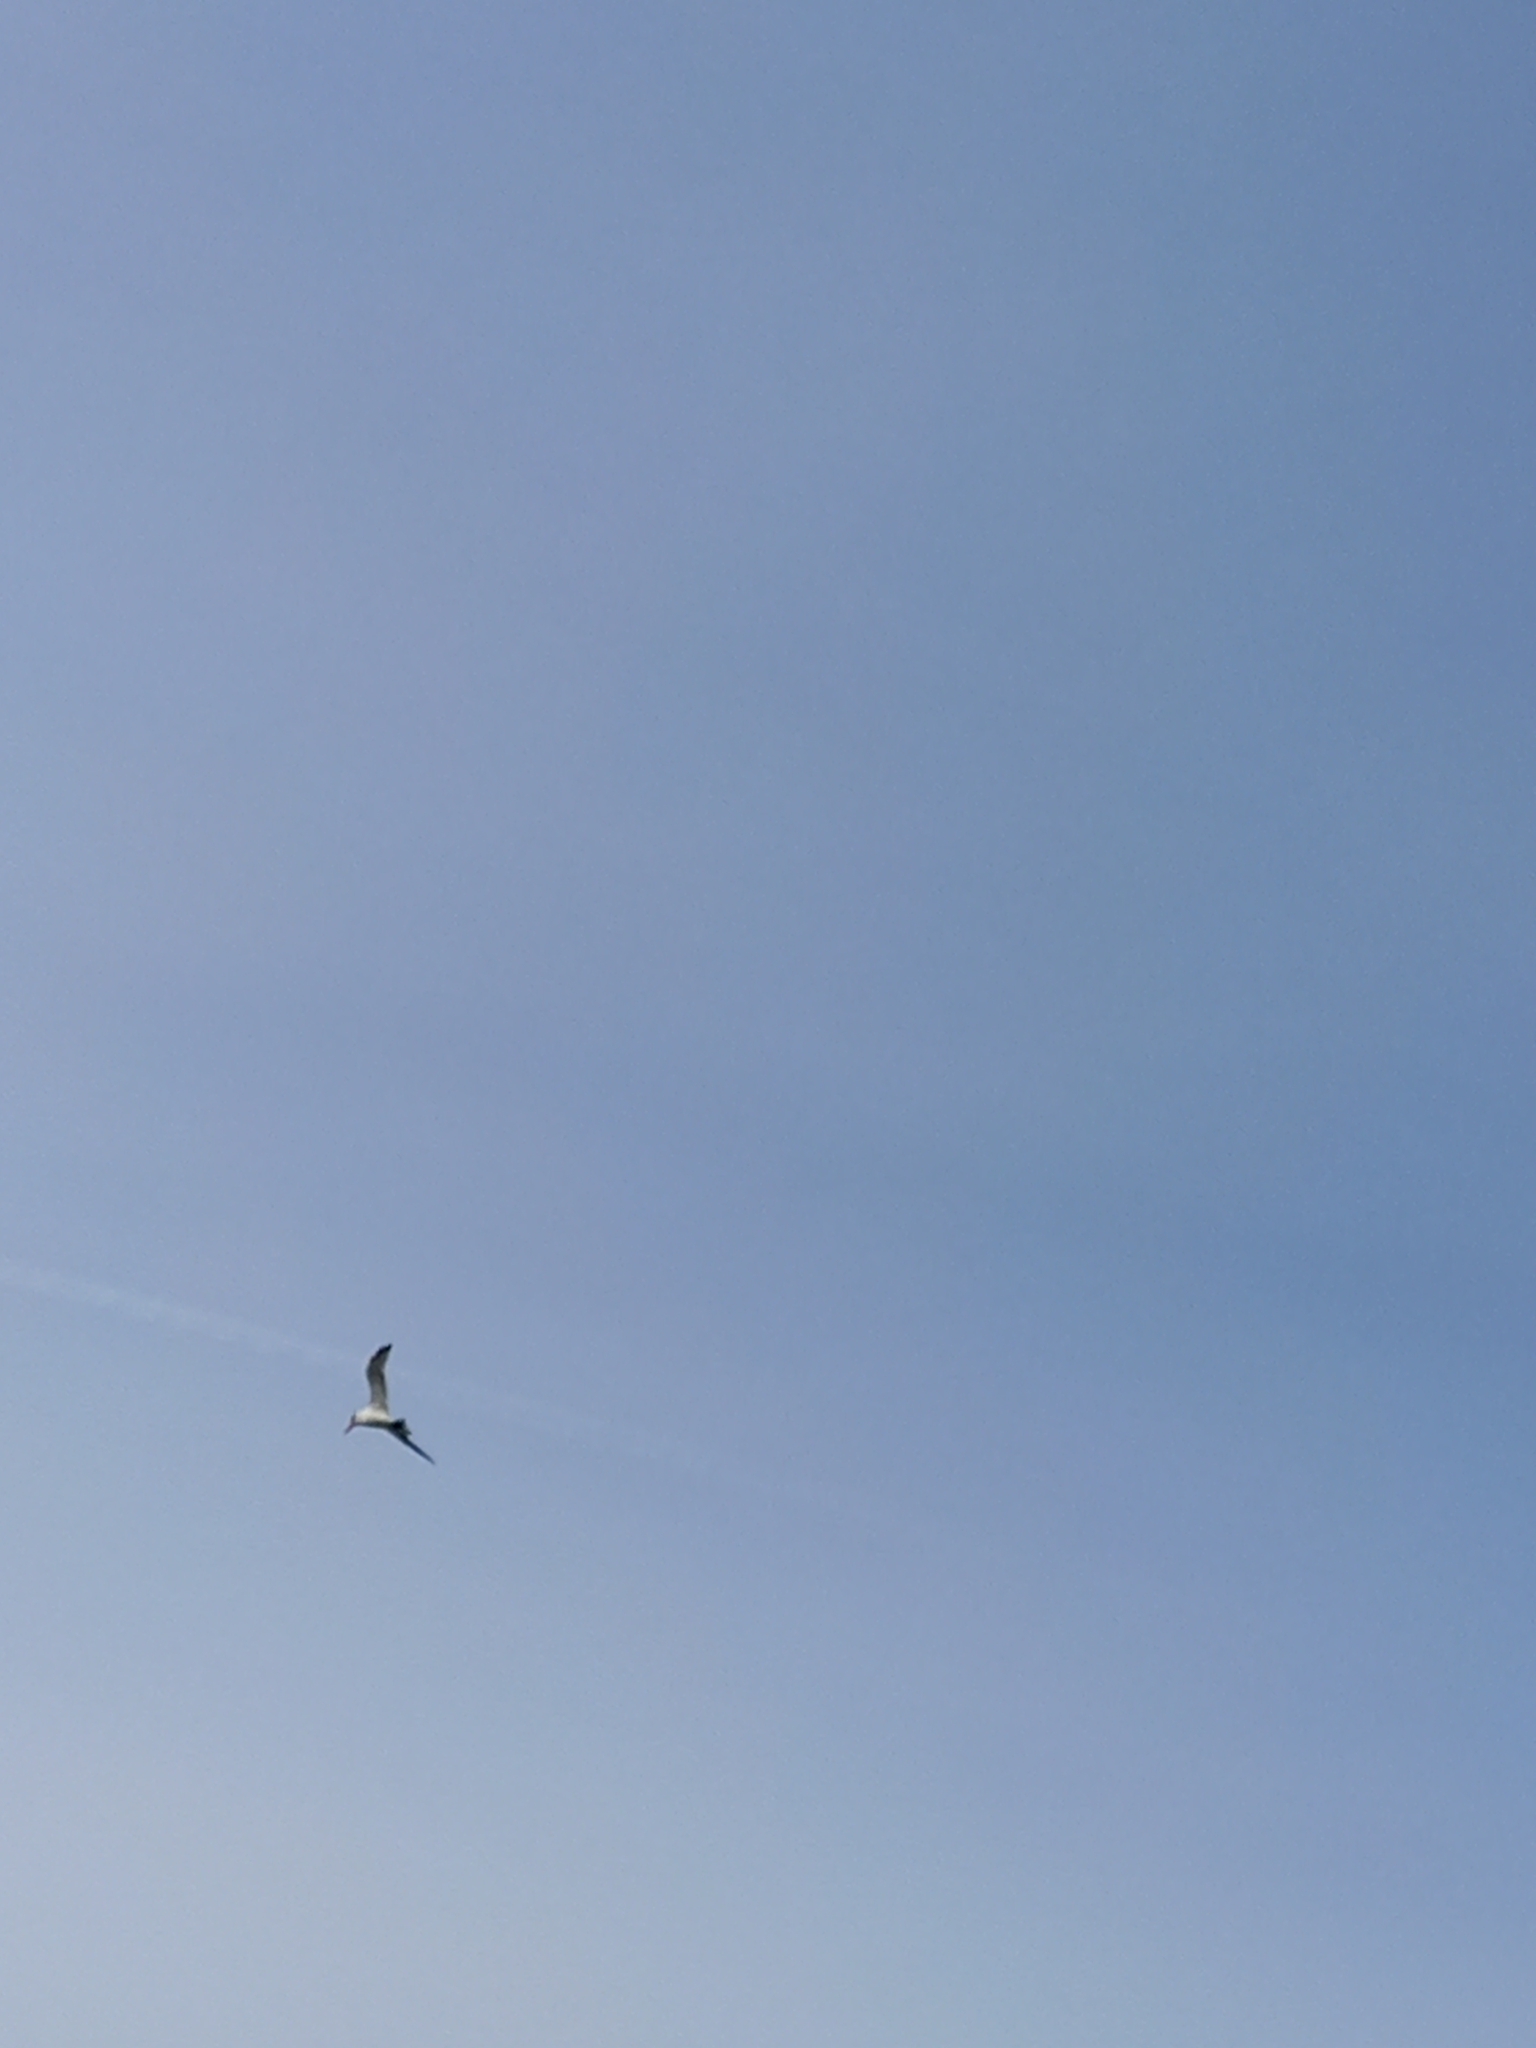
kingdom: Animalia
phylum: Chordata
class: Aves
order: Charadriiformes
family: Laridae
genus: Hydroprogne
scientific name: Hydroprogne caspia
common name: Caspian tern
